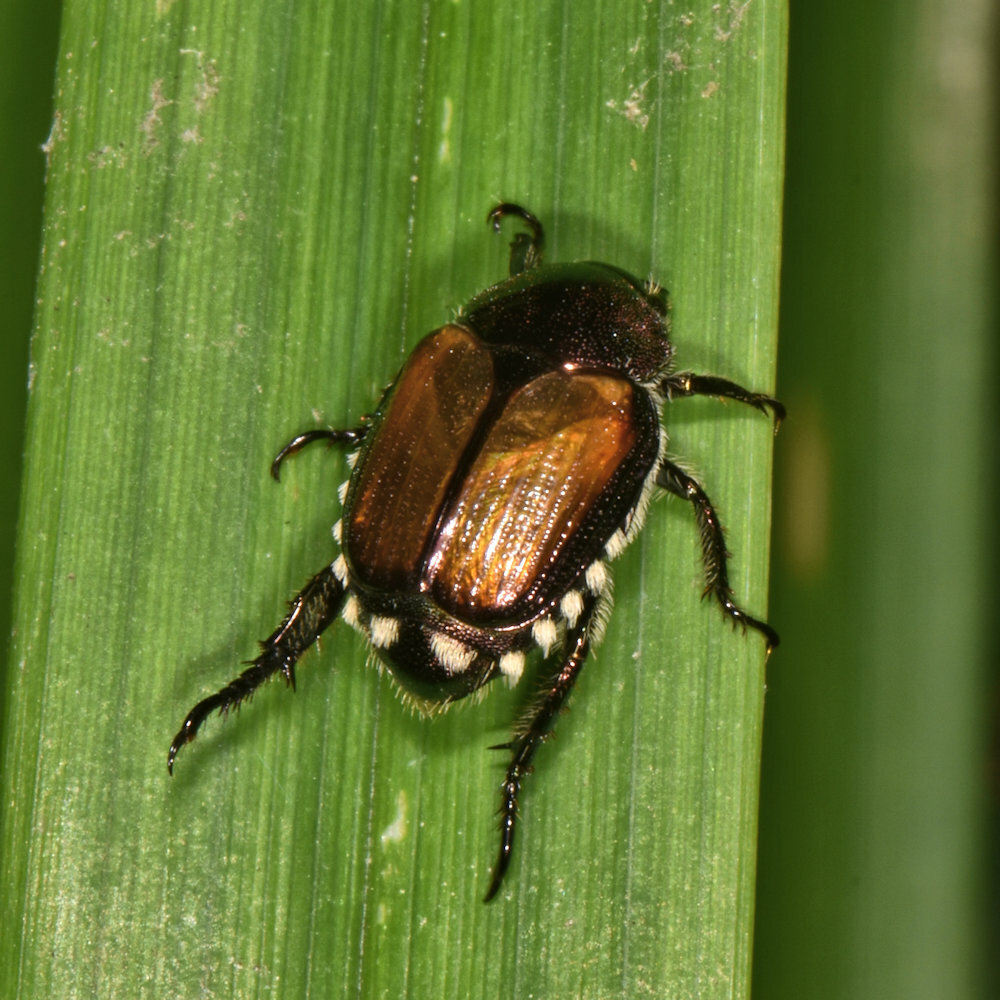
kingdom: Animalia
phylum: Arthropoda
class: Insecta
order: Coleoptera
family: Scarabaeidae
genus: Popillia
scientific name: Popillia japonica
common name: Japanese beetle
